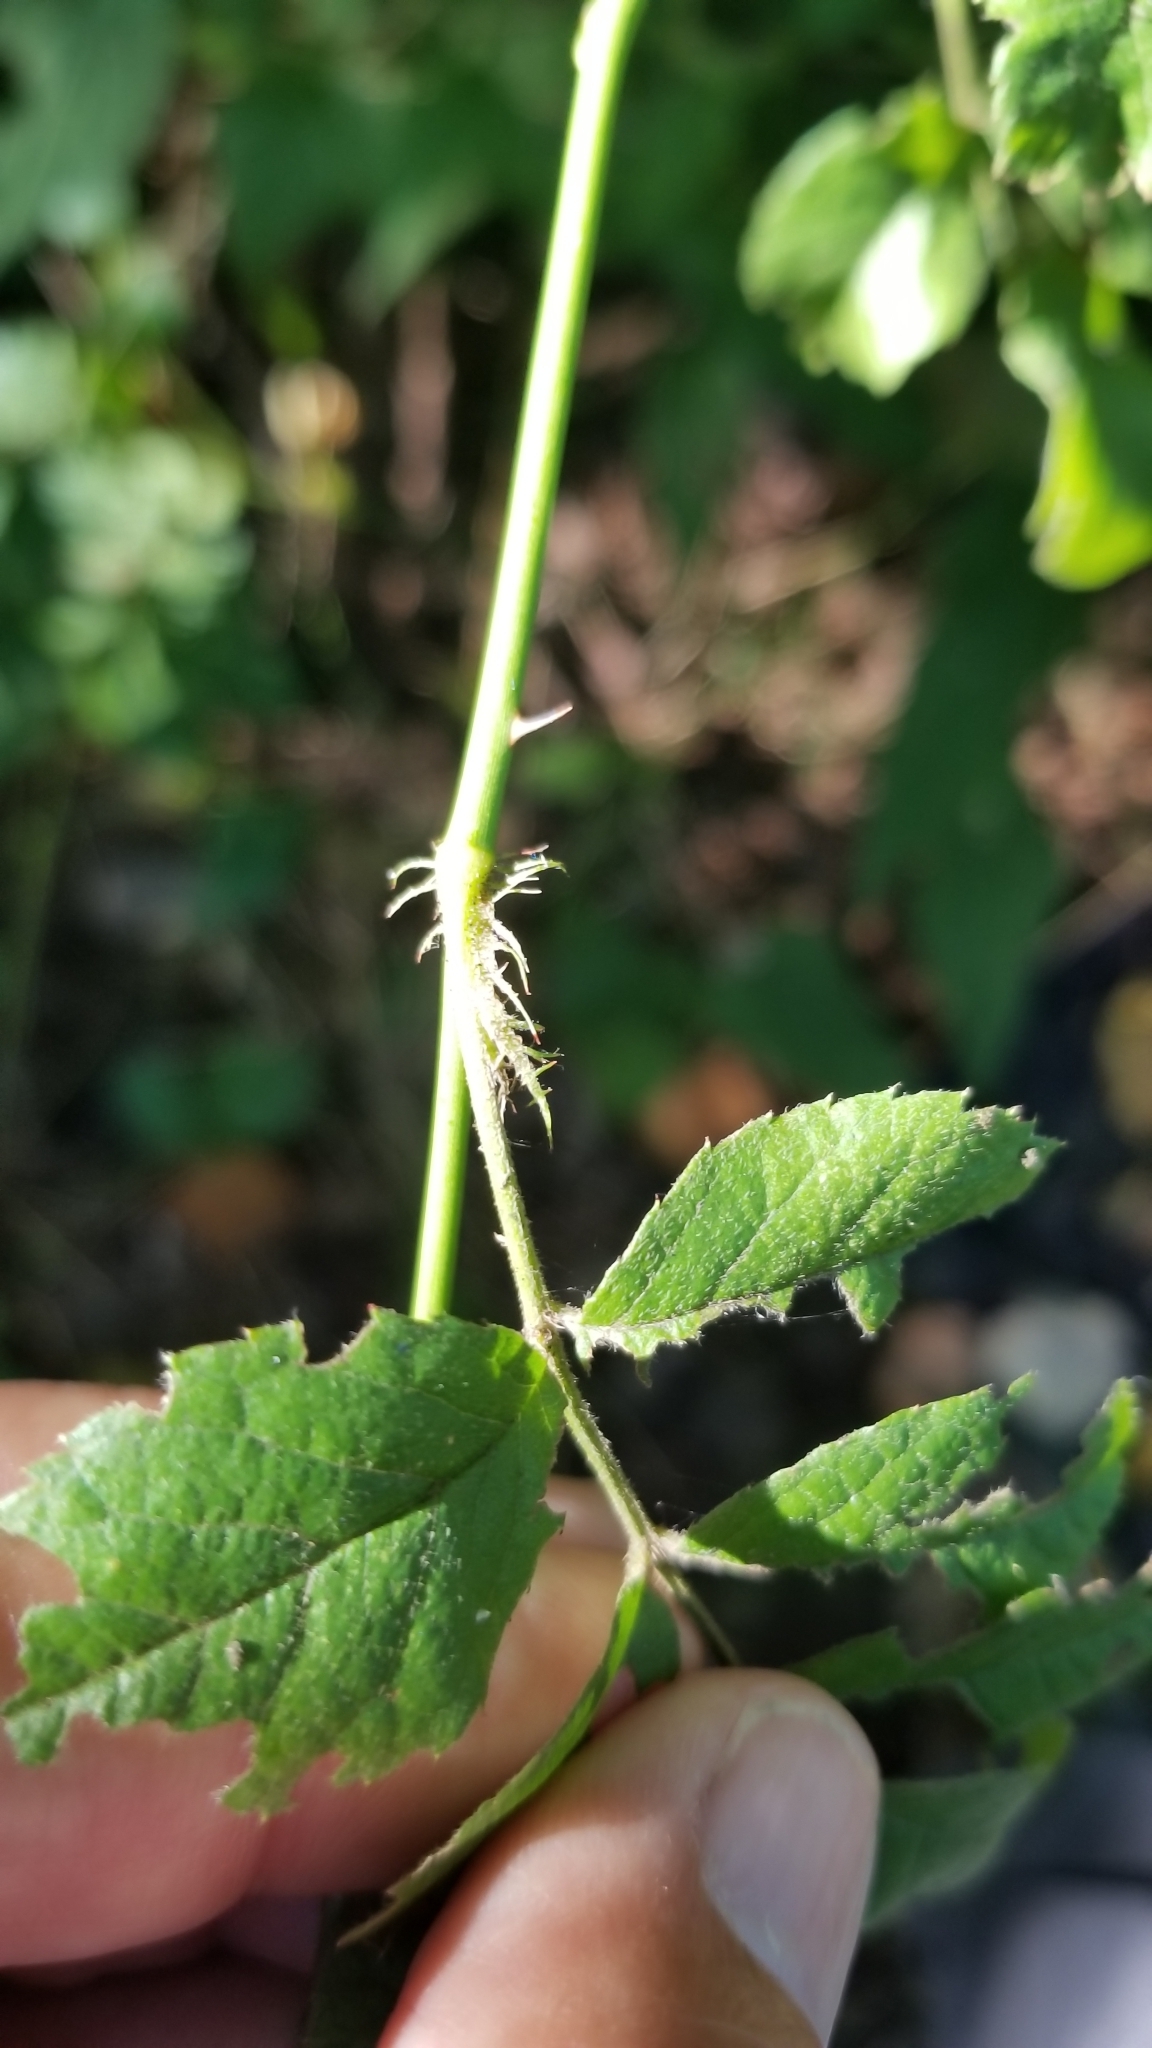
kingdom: Plantae
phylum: Tracheophyta
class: Magnoliopsida
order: Rosales
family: Rosaceae
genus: Rosa
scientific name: Rosa multiflora
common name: Multiflora rose
